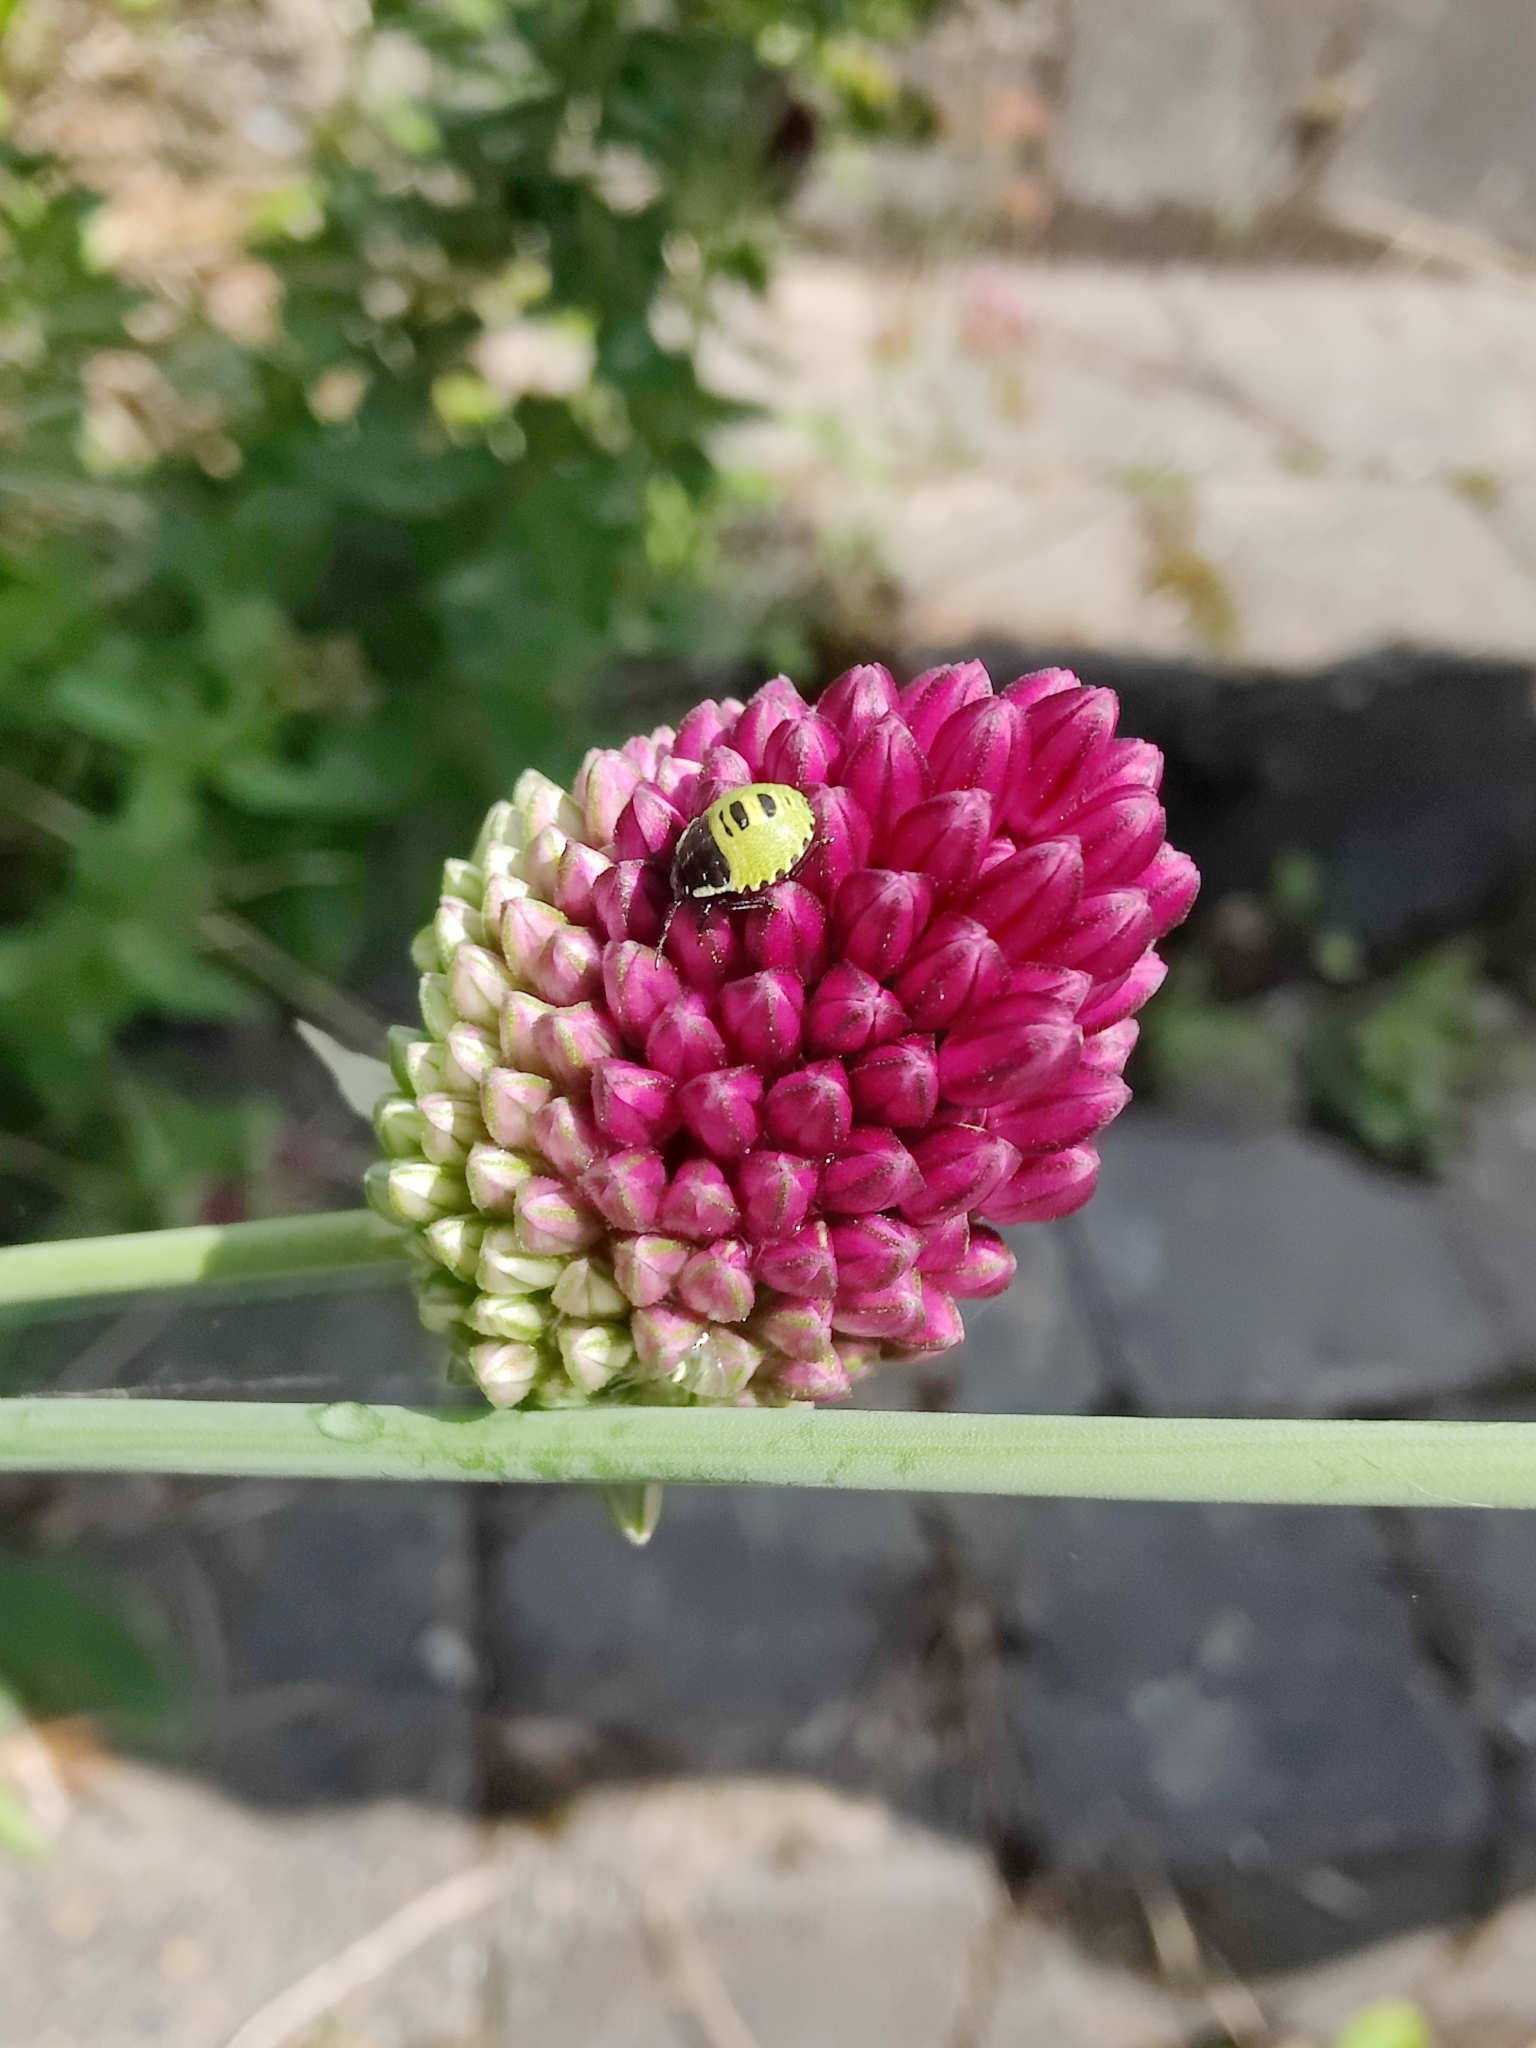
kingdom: Animalia
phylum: Arthropoda
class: Insecta
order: Hemiptera
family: Pentatomidae
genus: Palomena
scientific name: Palomena prasina
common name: Green shieldbug
